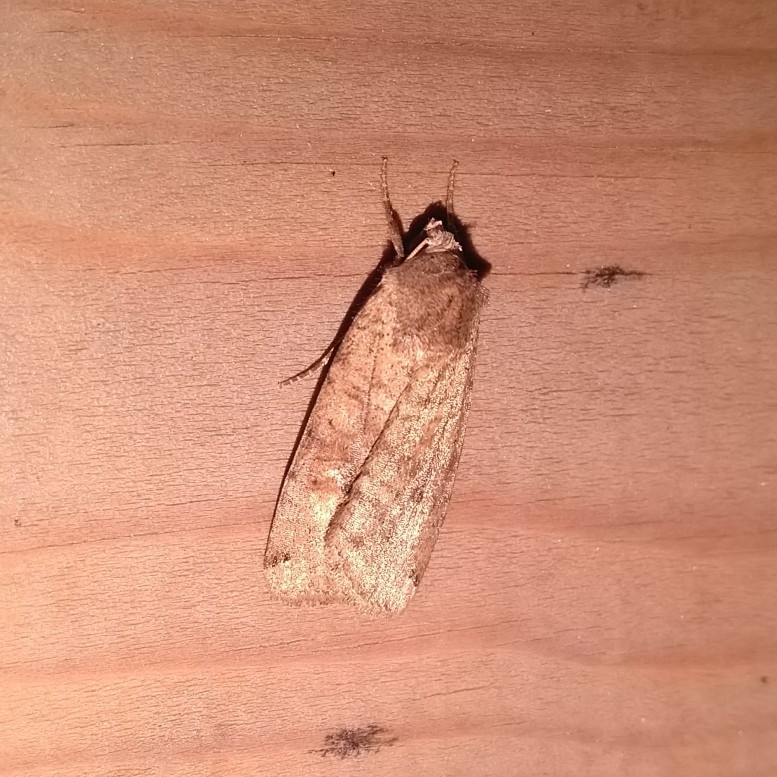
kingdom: Animalia
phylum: Arthropoda
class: Insecta
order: Lepidoptera
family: Noctuidae
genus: Xestia
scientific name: Xestia baja
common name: Dotted clay
